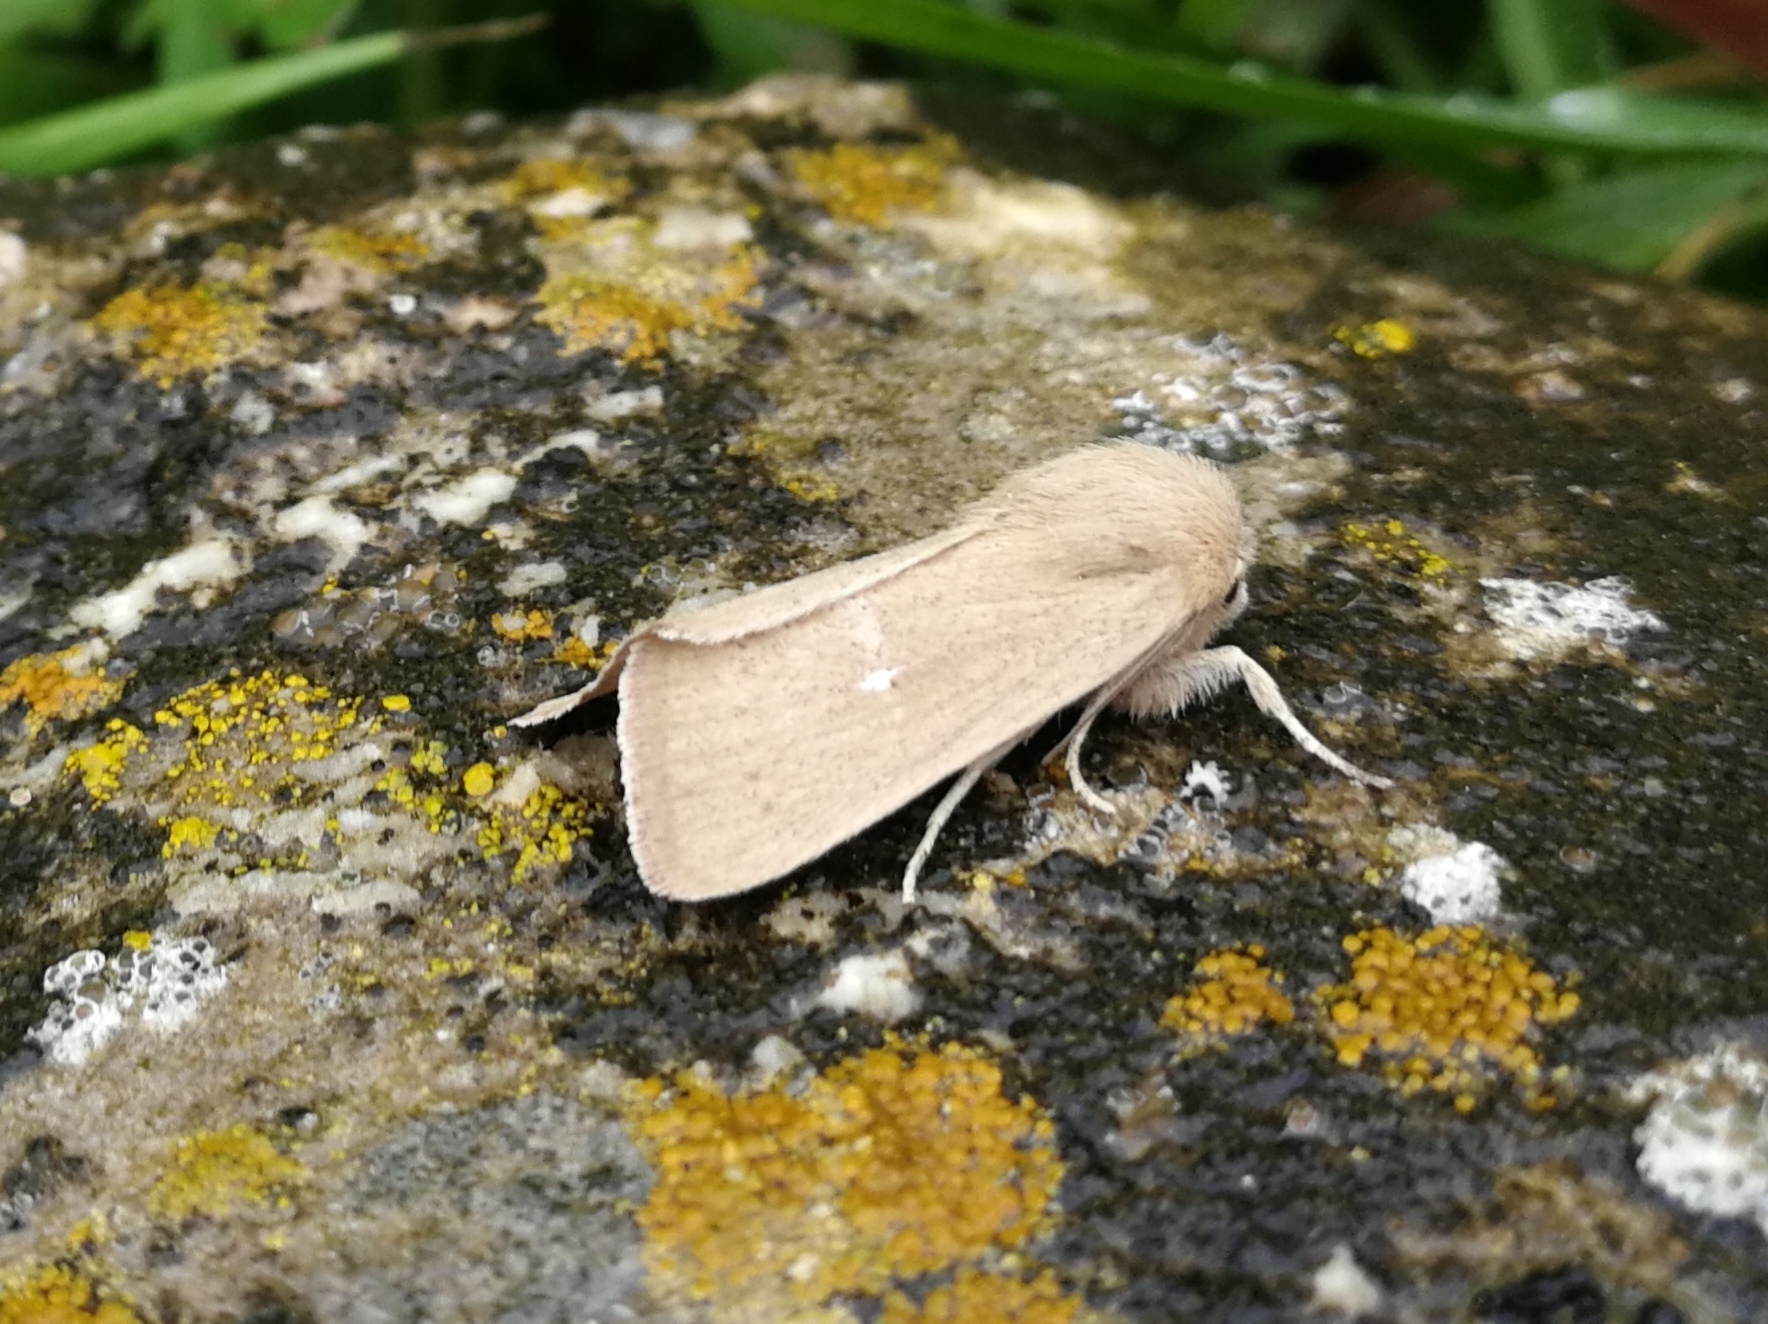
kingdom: Animalia
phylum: Arthropoda
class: Insecta
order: Lepidoptera
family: Noctuidae
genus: Mythimna
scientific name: Mythimna sicula
